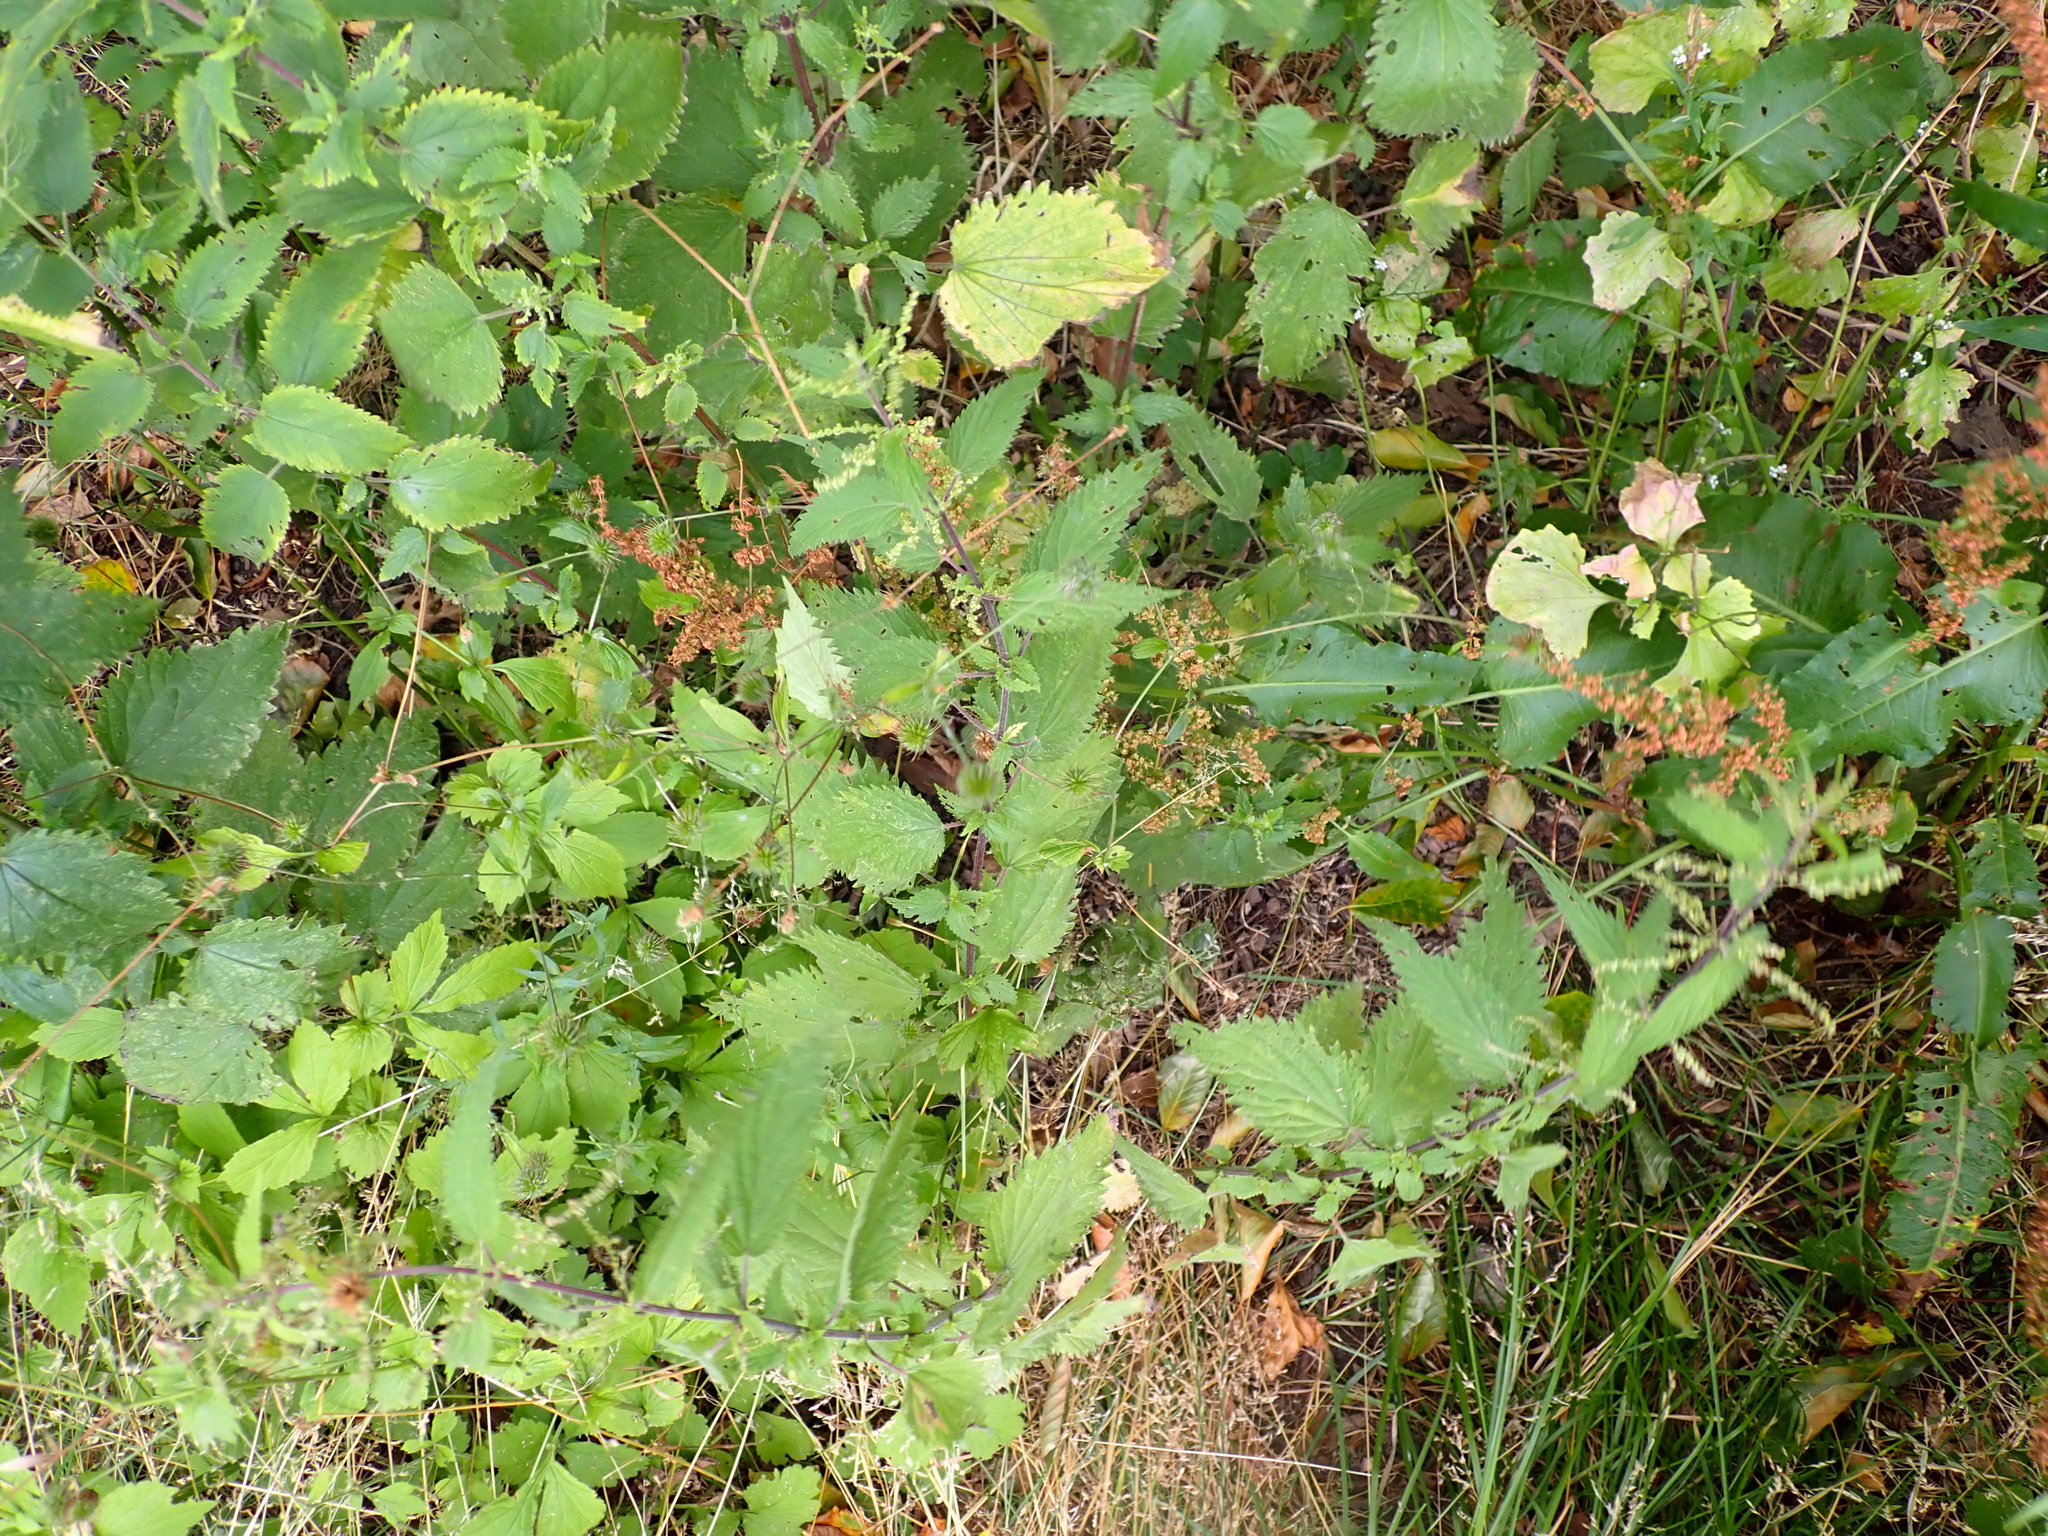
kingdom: Plantae
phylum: Tracheophyta
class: Magnoliopsida
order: Rosales
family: Urticaceae
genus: Urtica
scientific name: Urtica dioica
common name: Common nettle
